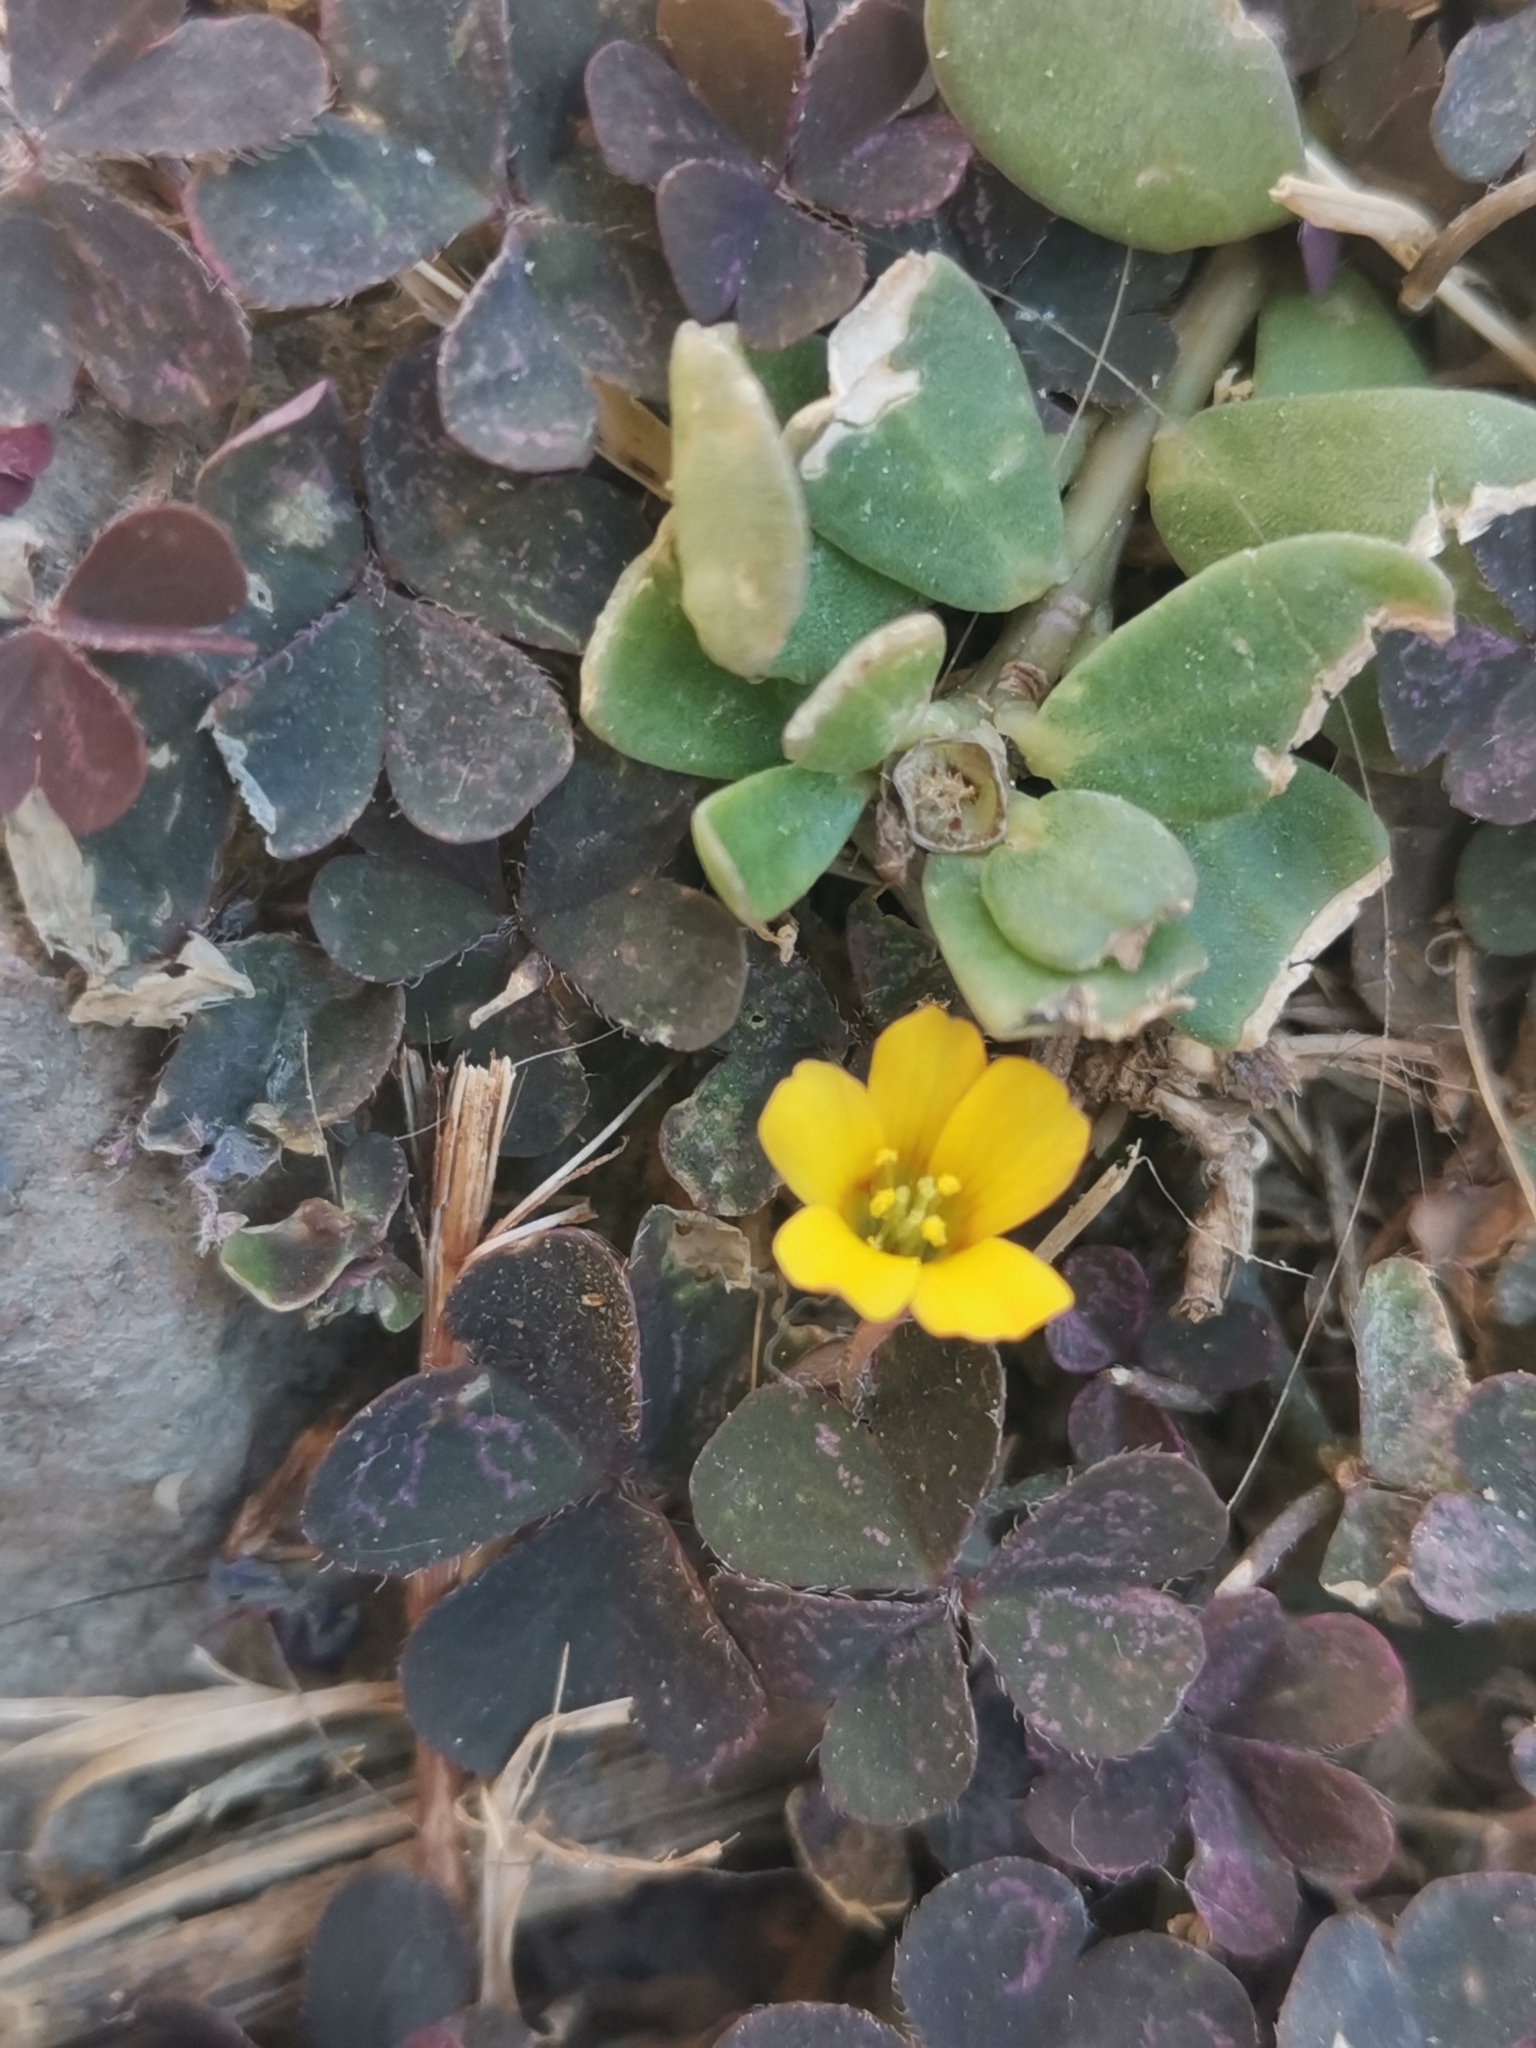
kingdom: Plantae
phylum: Tracheophyta
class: Magnoliopsida
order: Caryophyllales
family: Portulacaceae
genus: Portulaca
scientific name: Portulaca oleracea
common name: Common purslane
